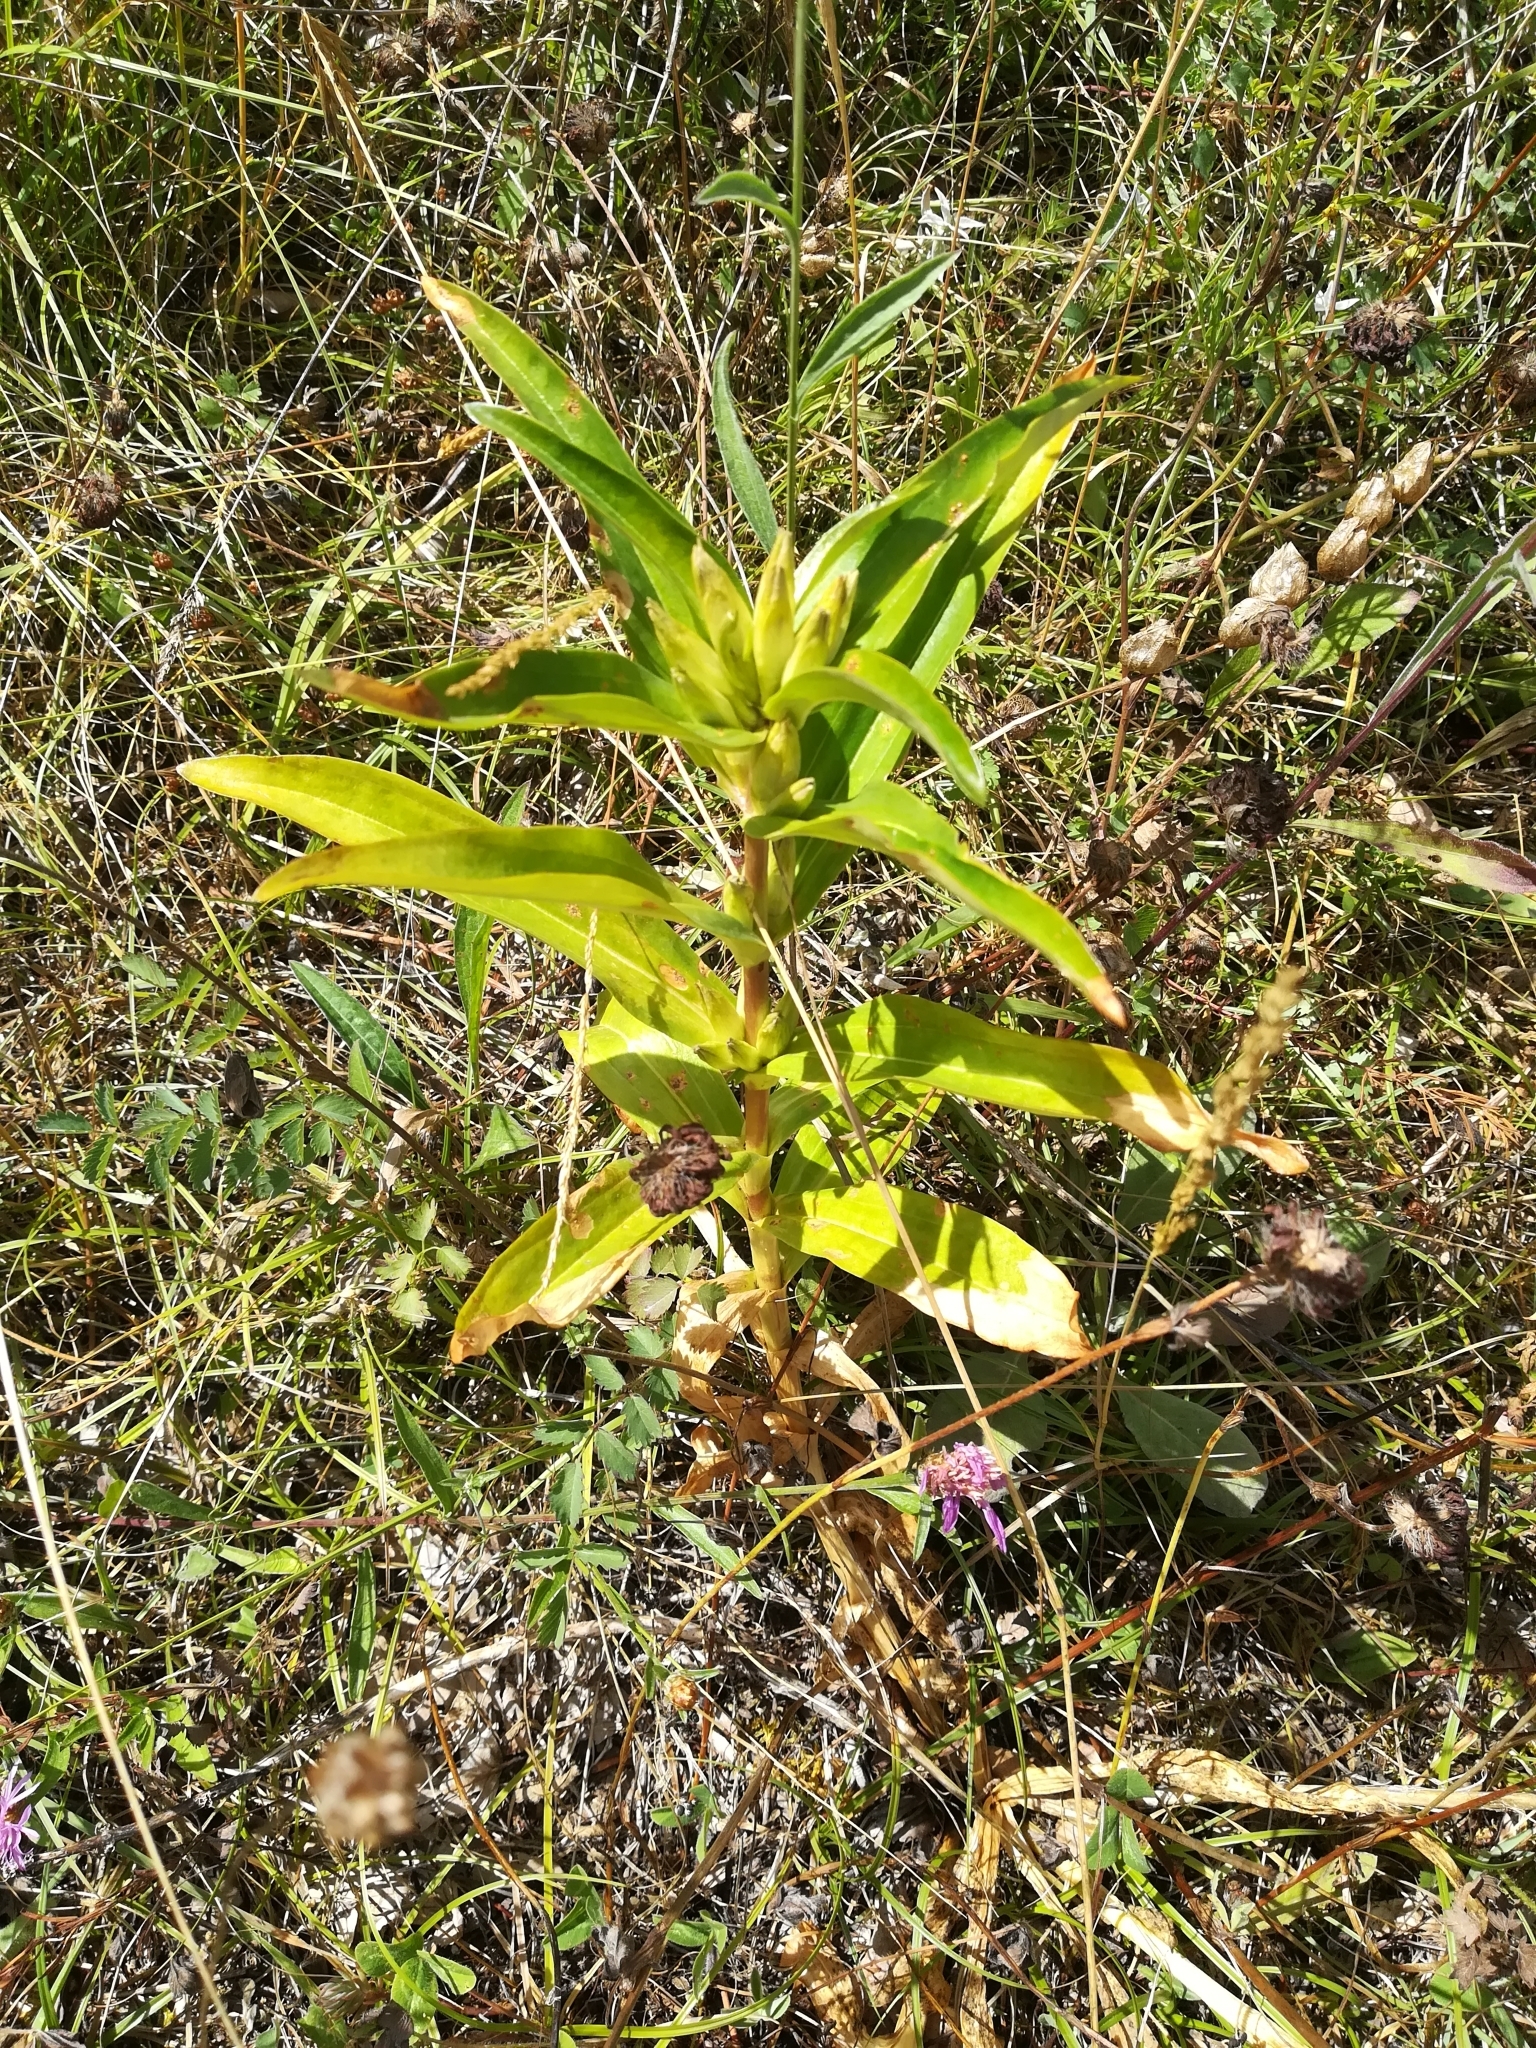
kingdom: Plantae
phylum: Tracheophyta
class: Magnoliopsida
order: Gentianales
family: Gentianaceae
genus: Gentiana
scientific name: Gentiana cruciata
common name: Cross gentian
